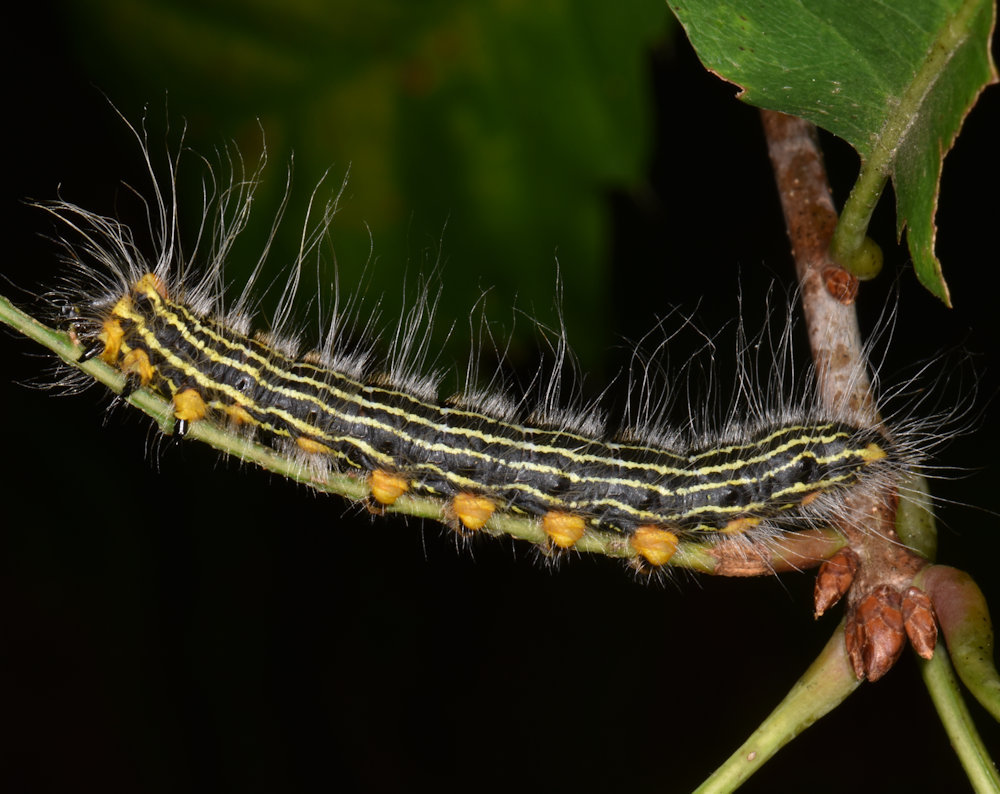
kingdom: Animalia
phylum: Arthropoda
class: Insecta
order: Lepidoptera
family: Notodontidae
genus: Datana
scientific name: Datana ministra
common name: Yellow-necked caterpillar moth
